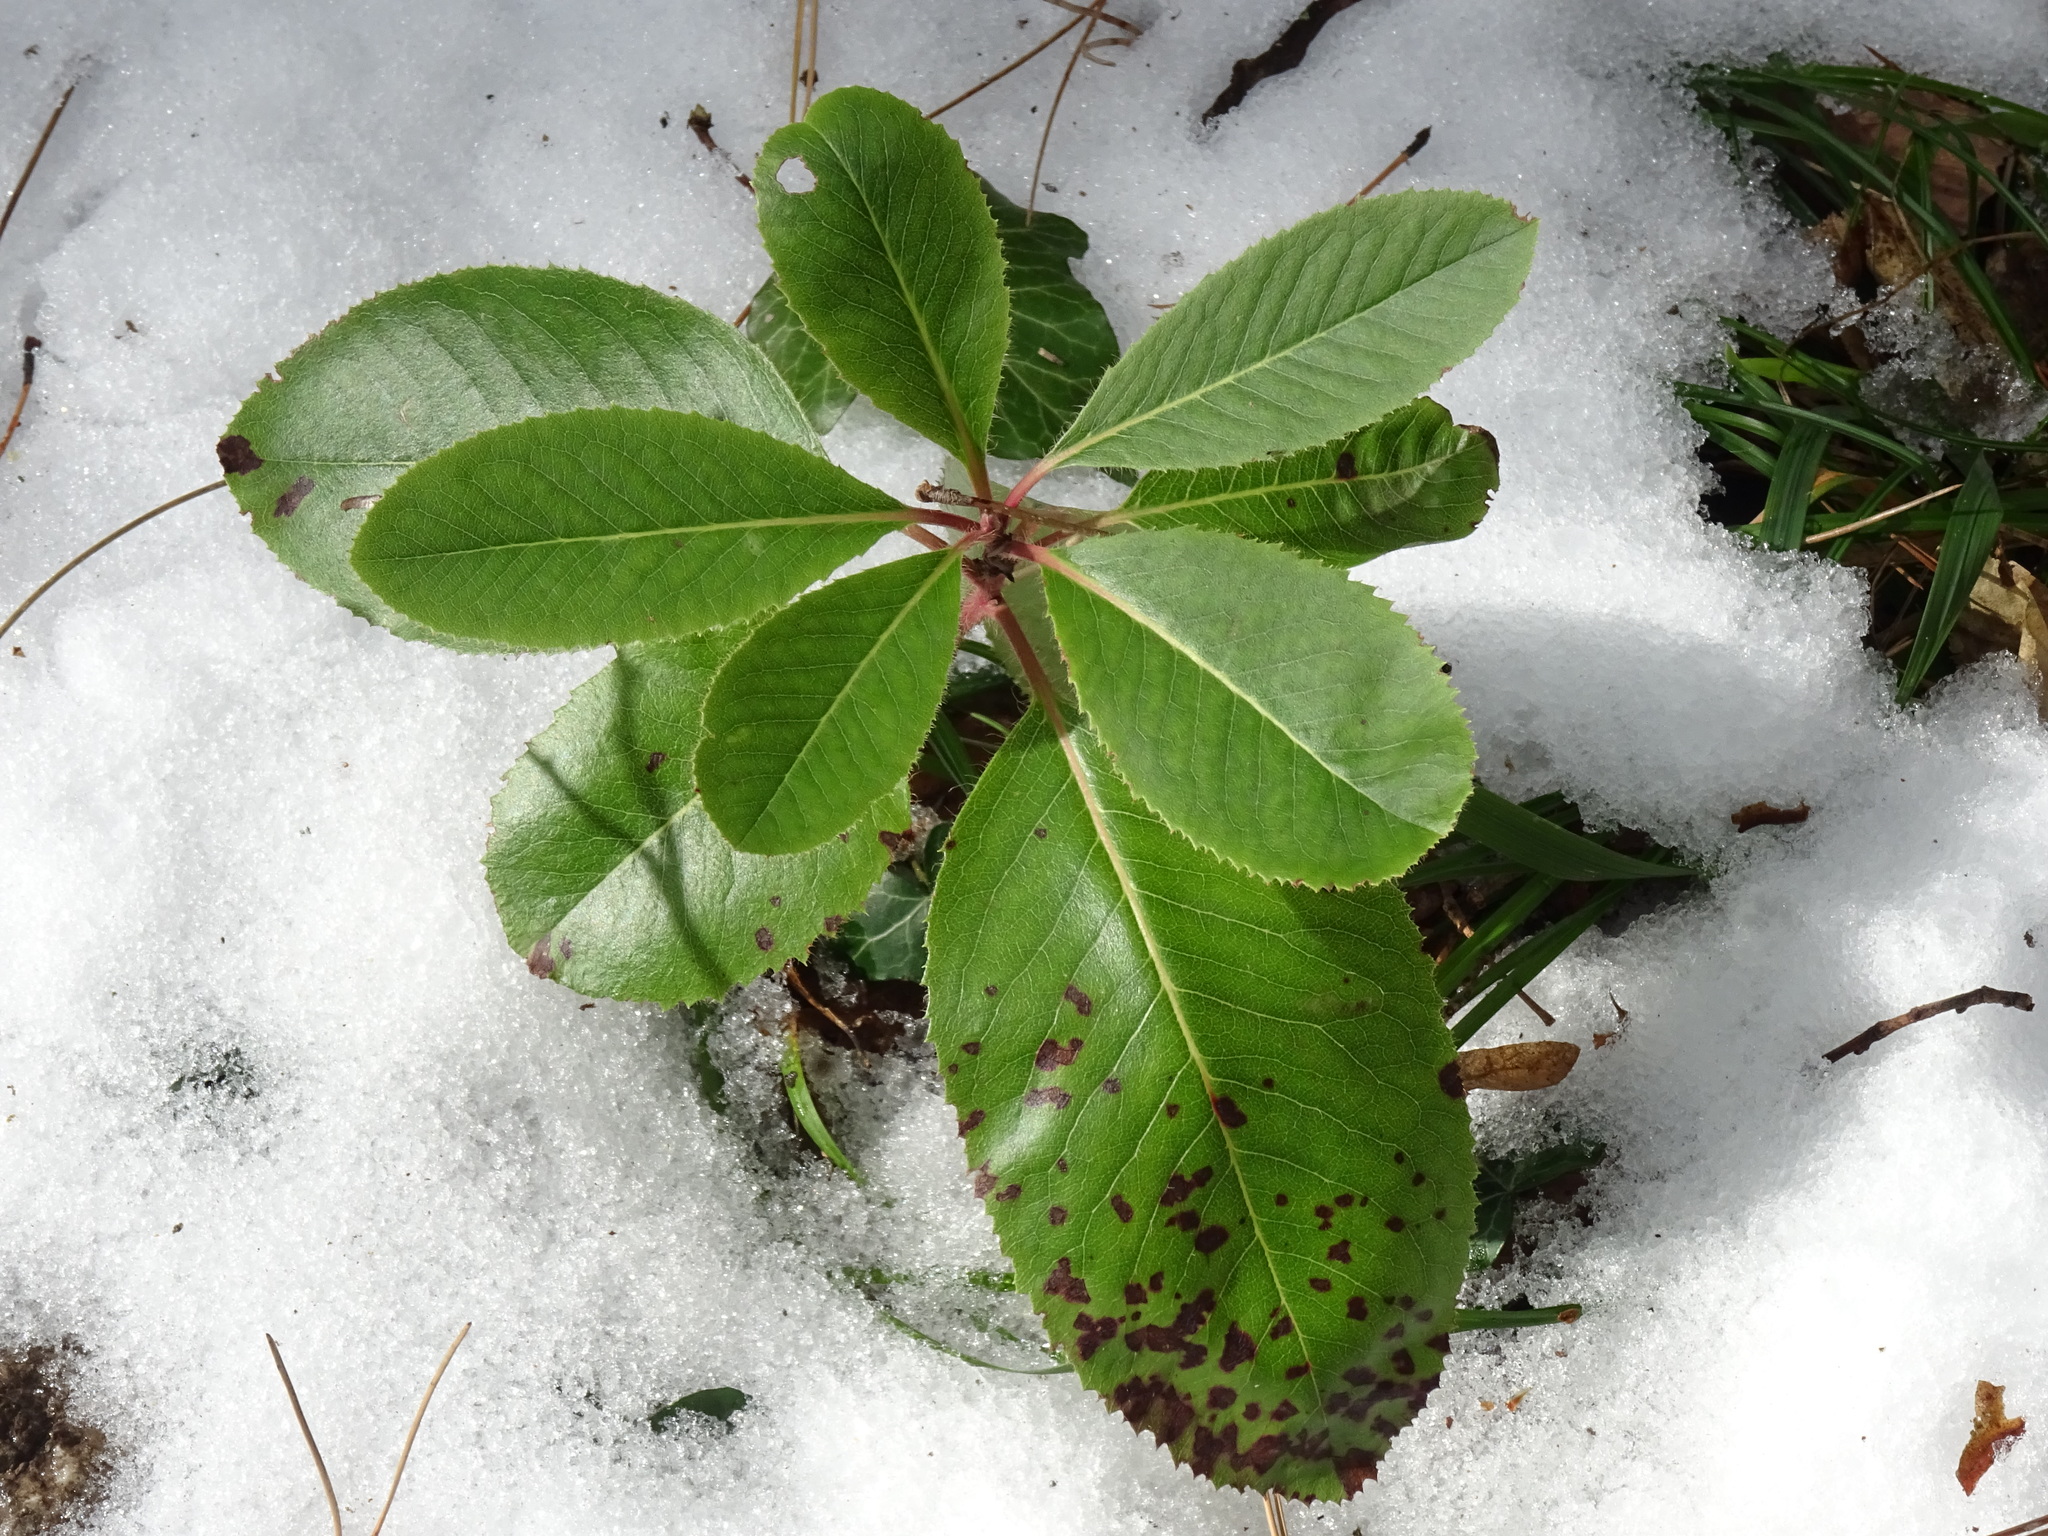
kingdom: Plantae
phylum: Tracheophyta
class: Magnoliopsida
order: Ericales
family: Ericaceae
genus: Arbutus
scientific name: Arbutus andrachne
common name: Greek strawberry tree
